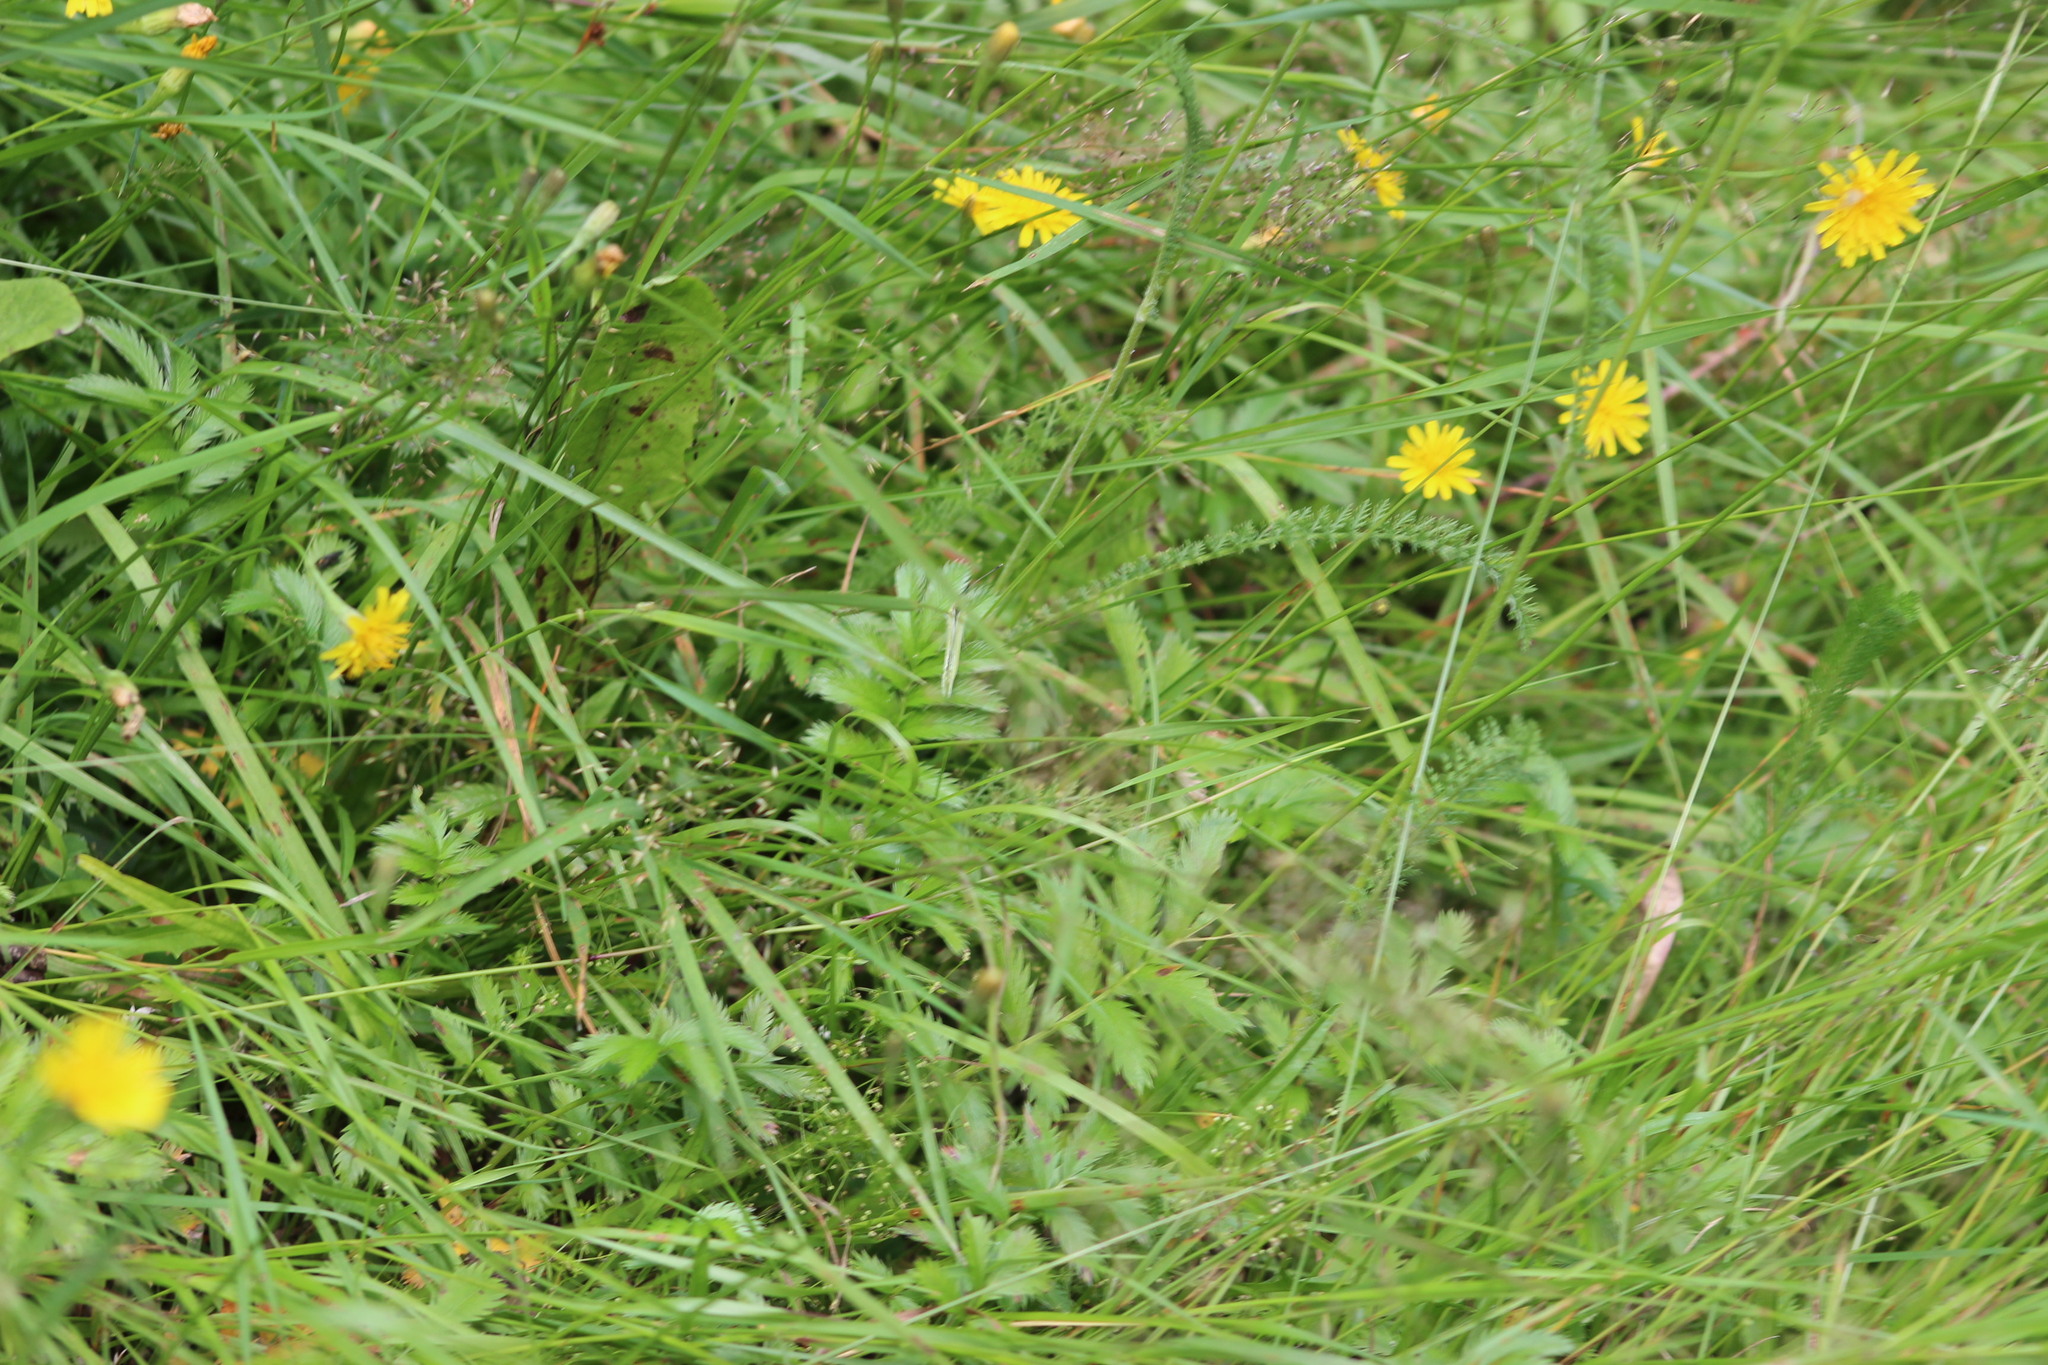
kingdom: Plantae
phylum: Tracheophyta
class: Magnoliopsida
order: Rosales
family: Rosaceae
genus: Argentina
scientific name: Argentina anserina
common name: Common silverweed
